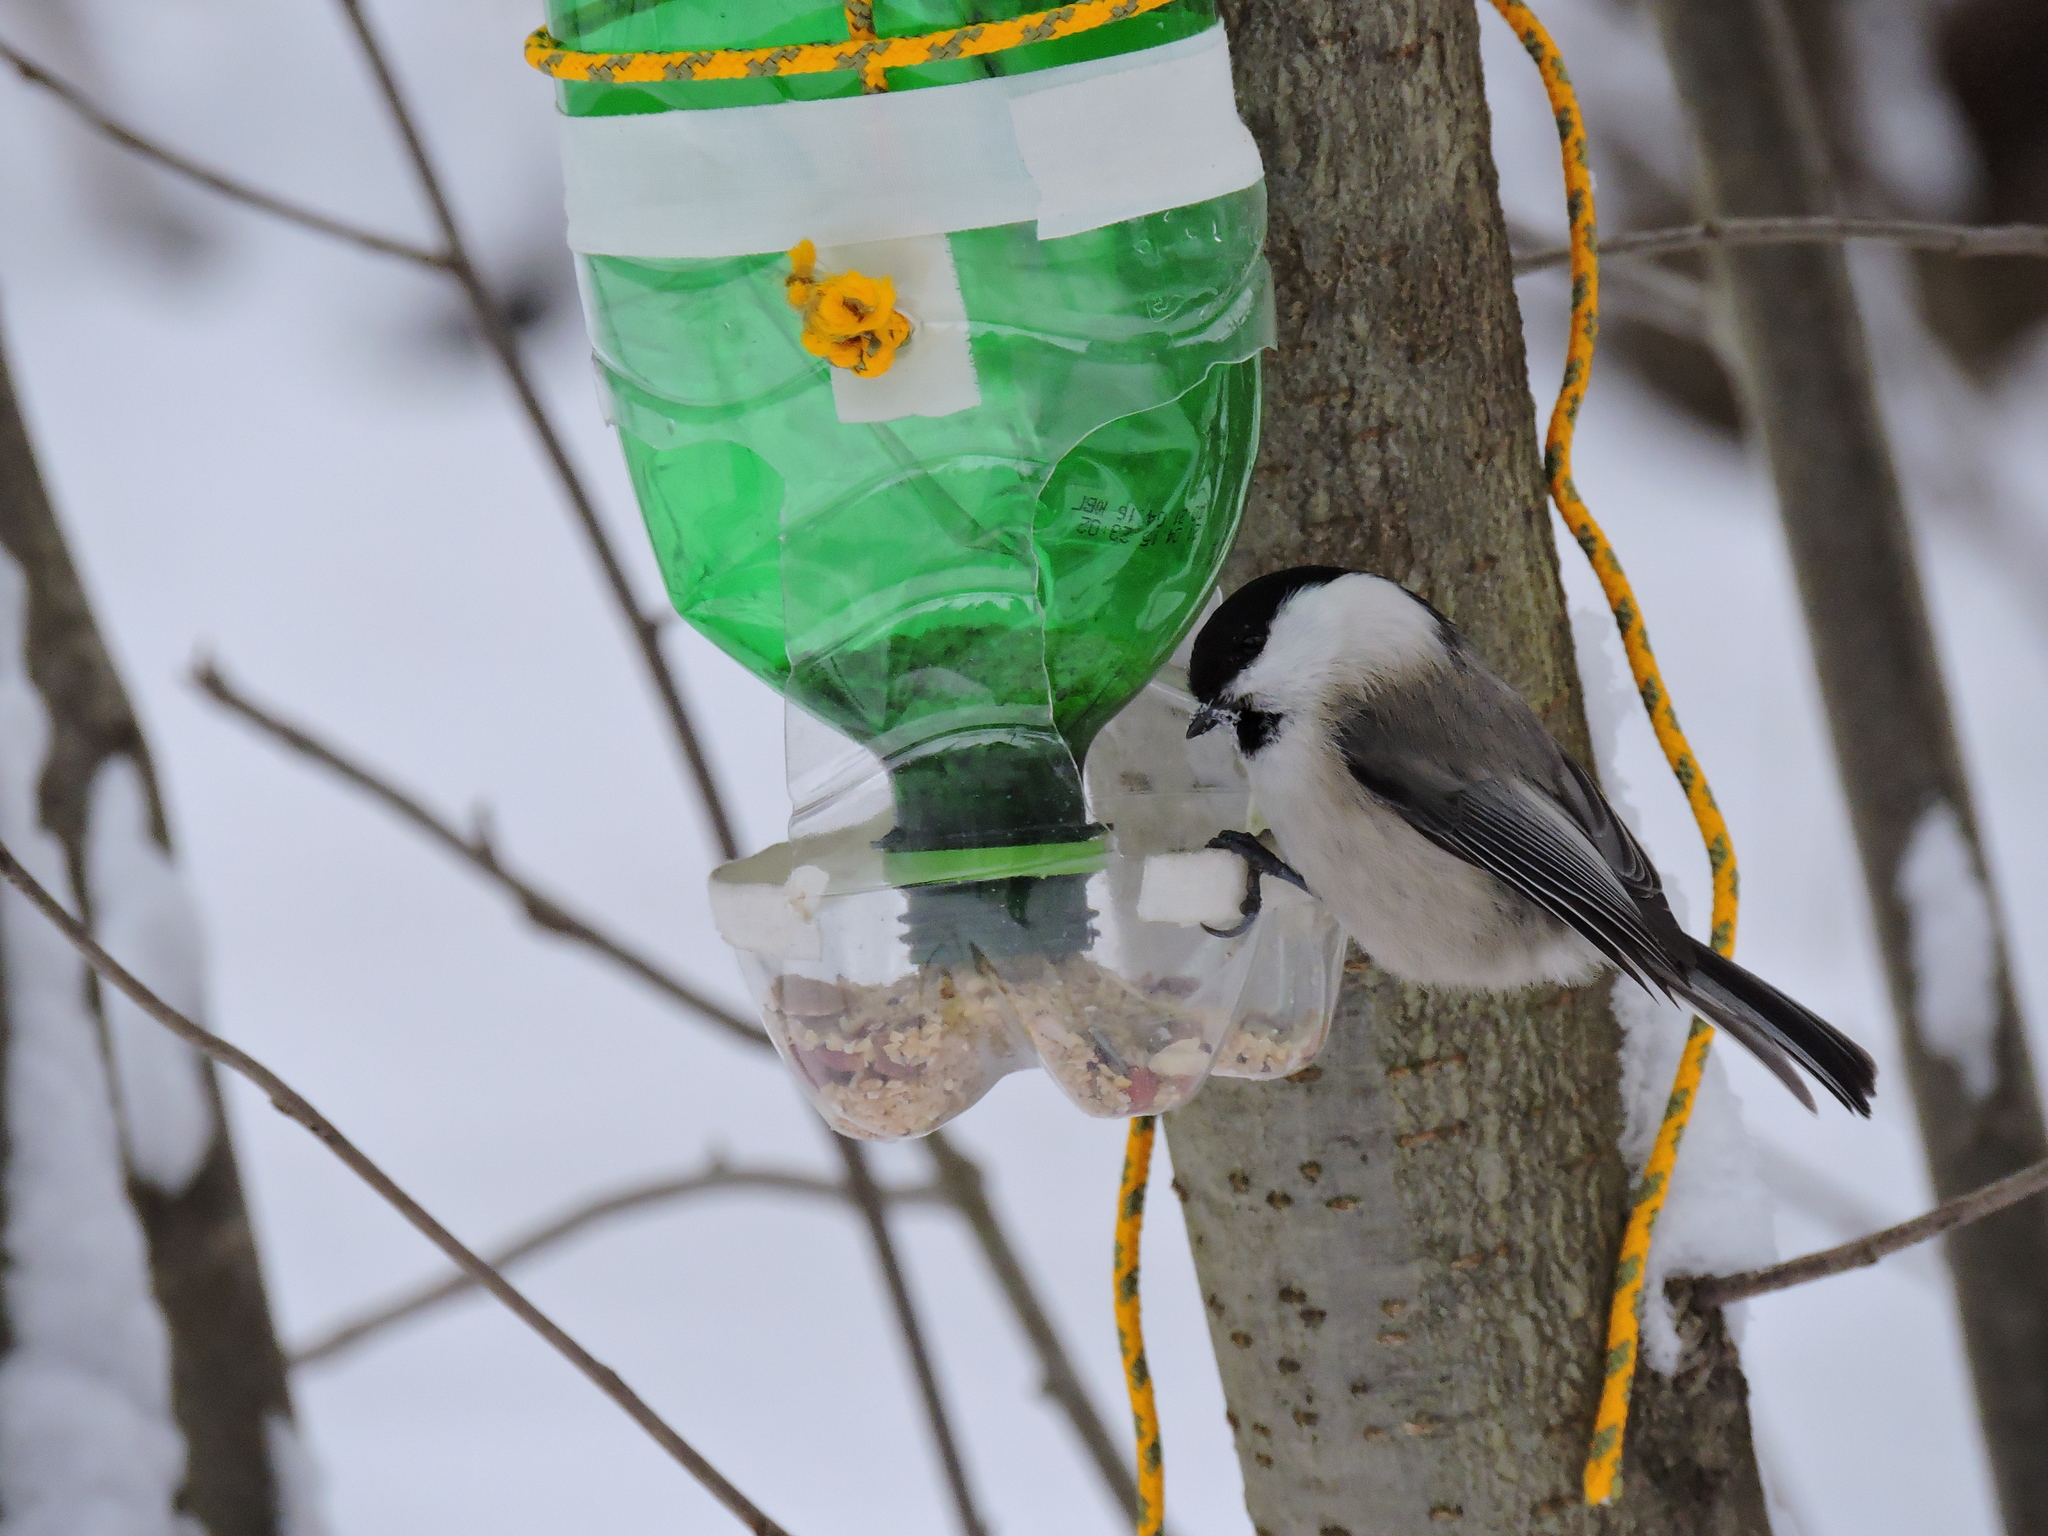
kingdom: Animalia
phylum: Chordata
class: Aves
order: Passeriformes
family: Paridae
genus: Poecile
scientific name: Poecile montanus
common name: Willow tit
